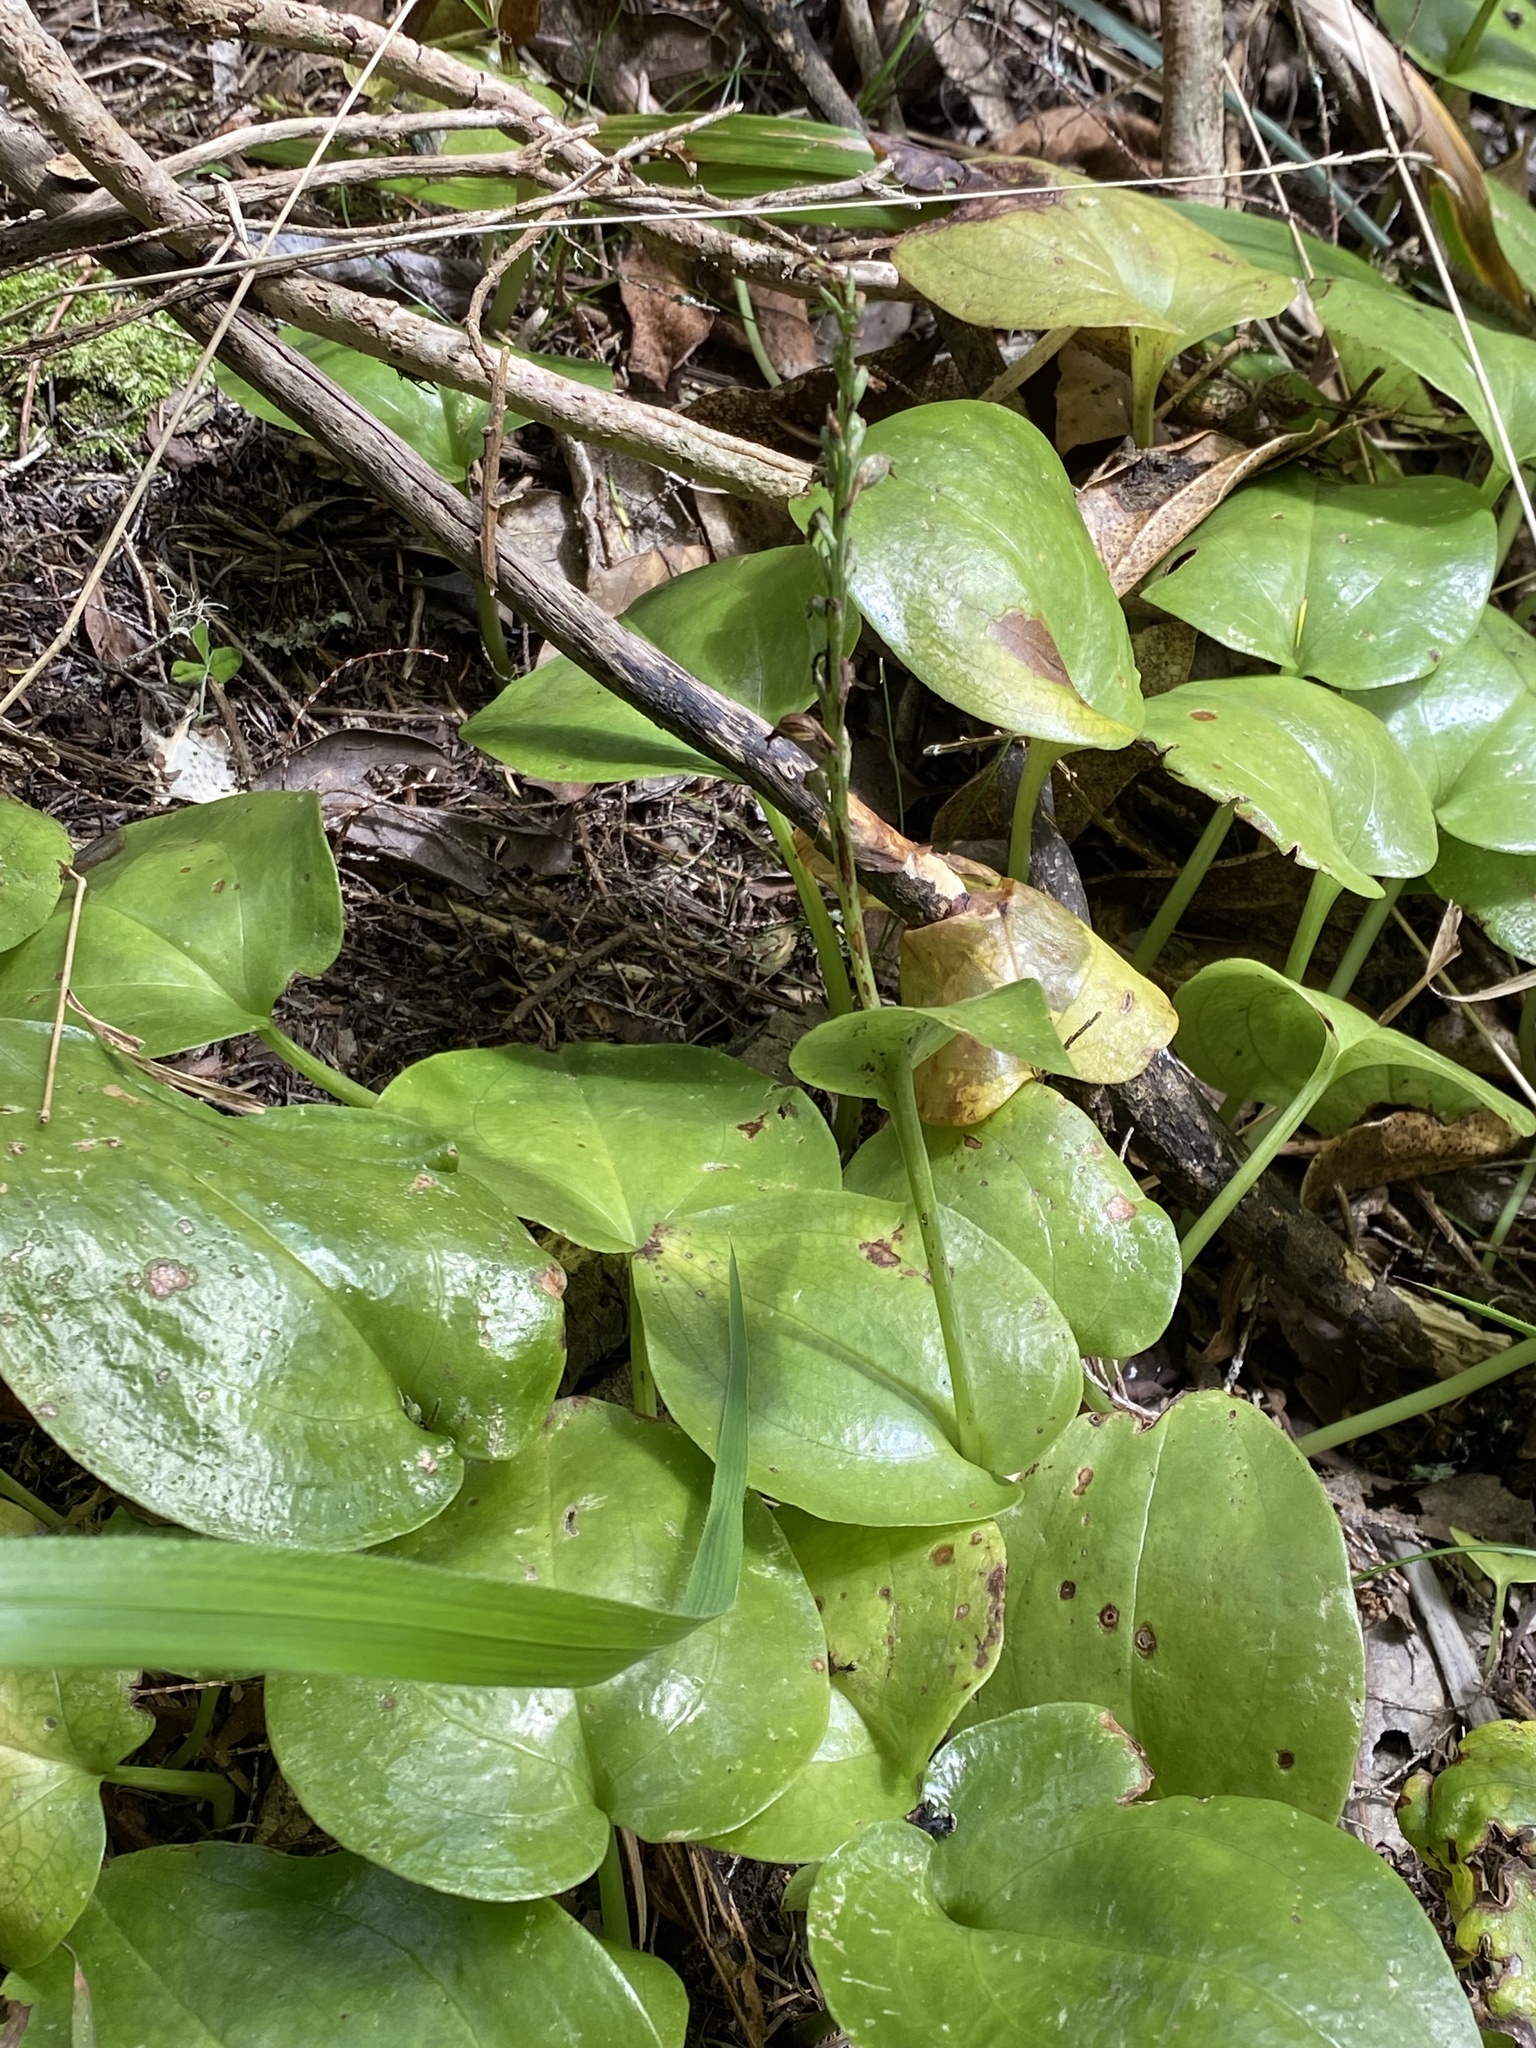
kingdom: Plantae
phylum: Tracheophyta
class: Liliopsida
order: Asparagales
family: Orchidaceae
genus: Gennaria
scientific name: Gennaria diphylla
